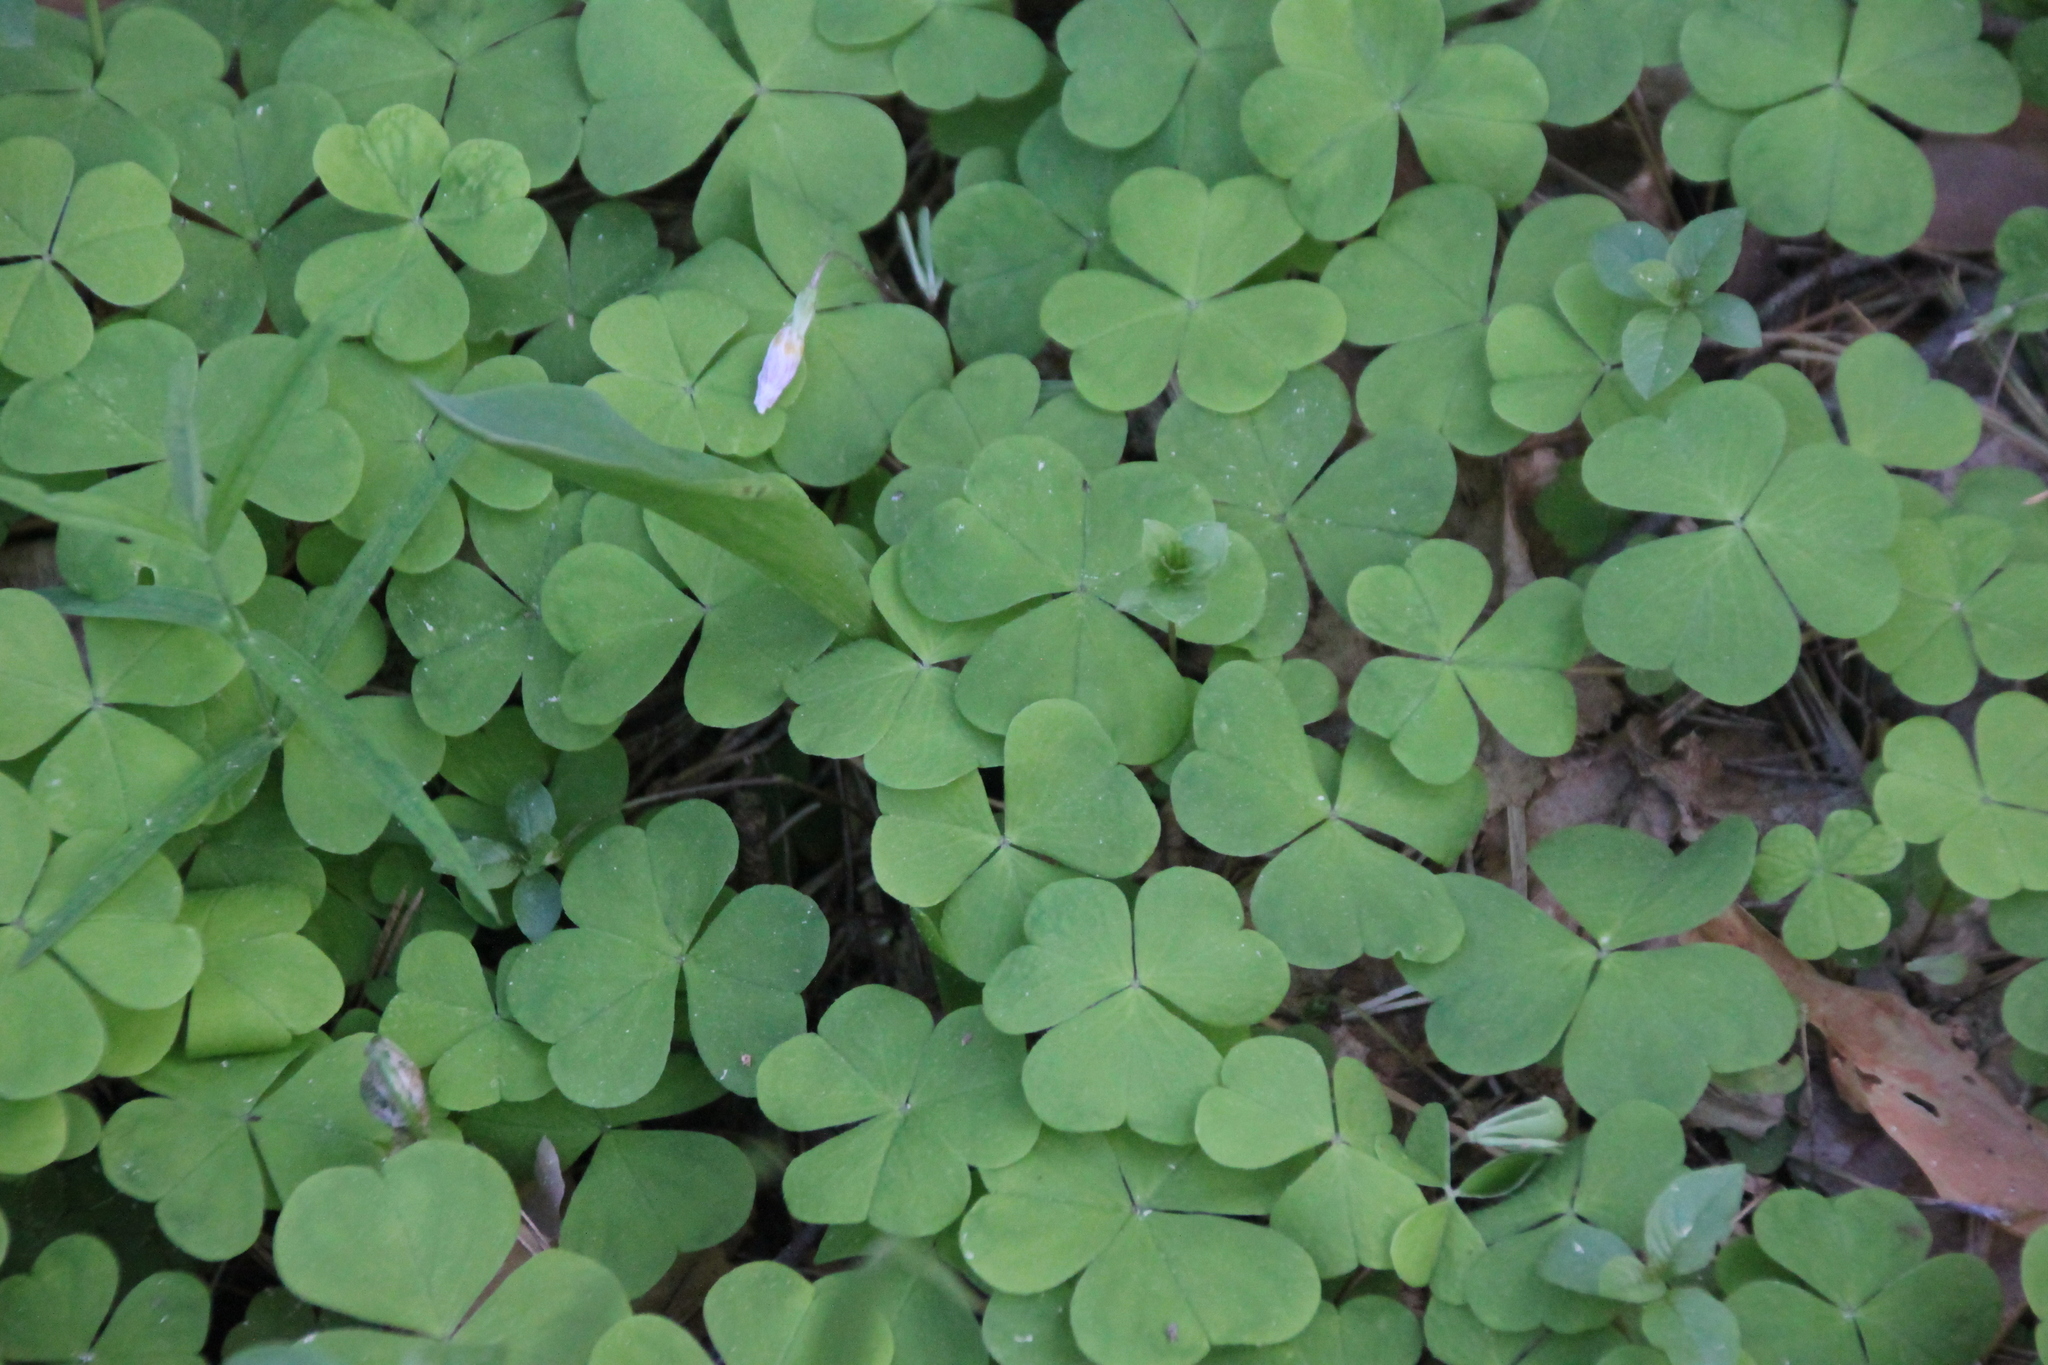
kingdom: Plantae
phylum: Tracheophyta
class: Magnoliopsida
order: Oxalidales
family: Oxalidaceae
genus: Oxalis
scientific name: Oxalis acetosella
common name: Wood-sorrel
